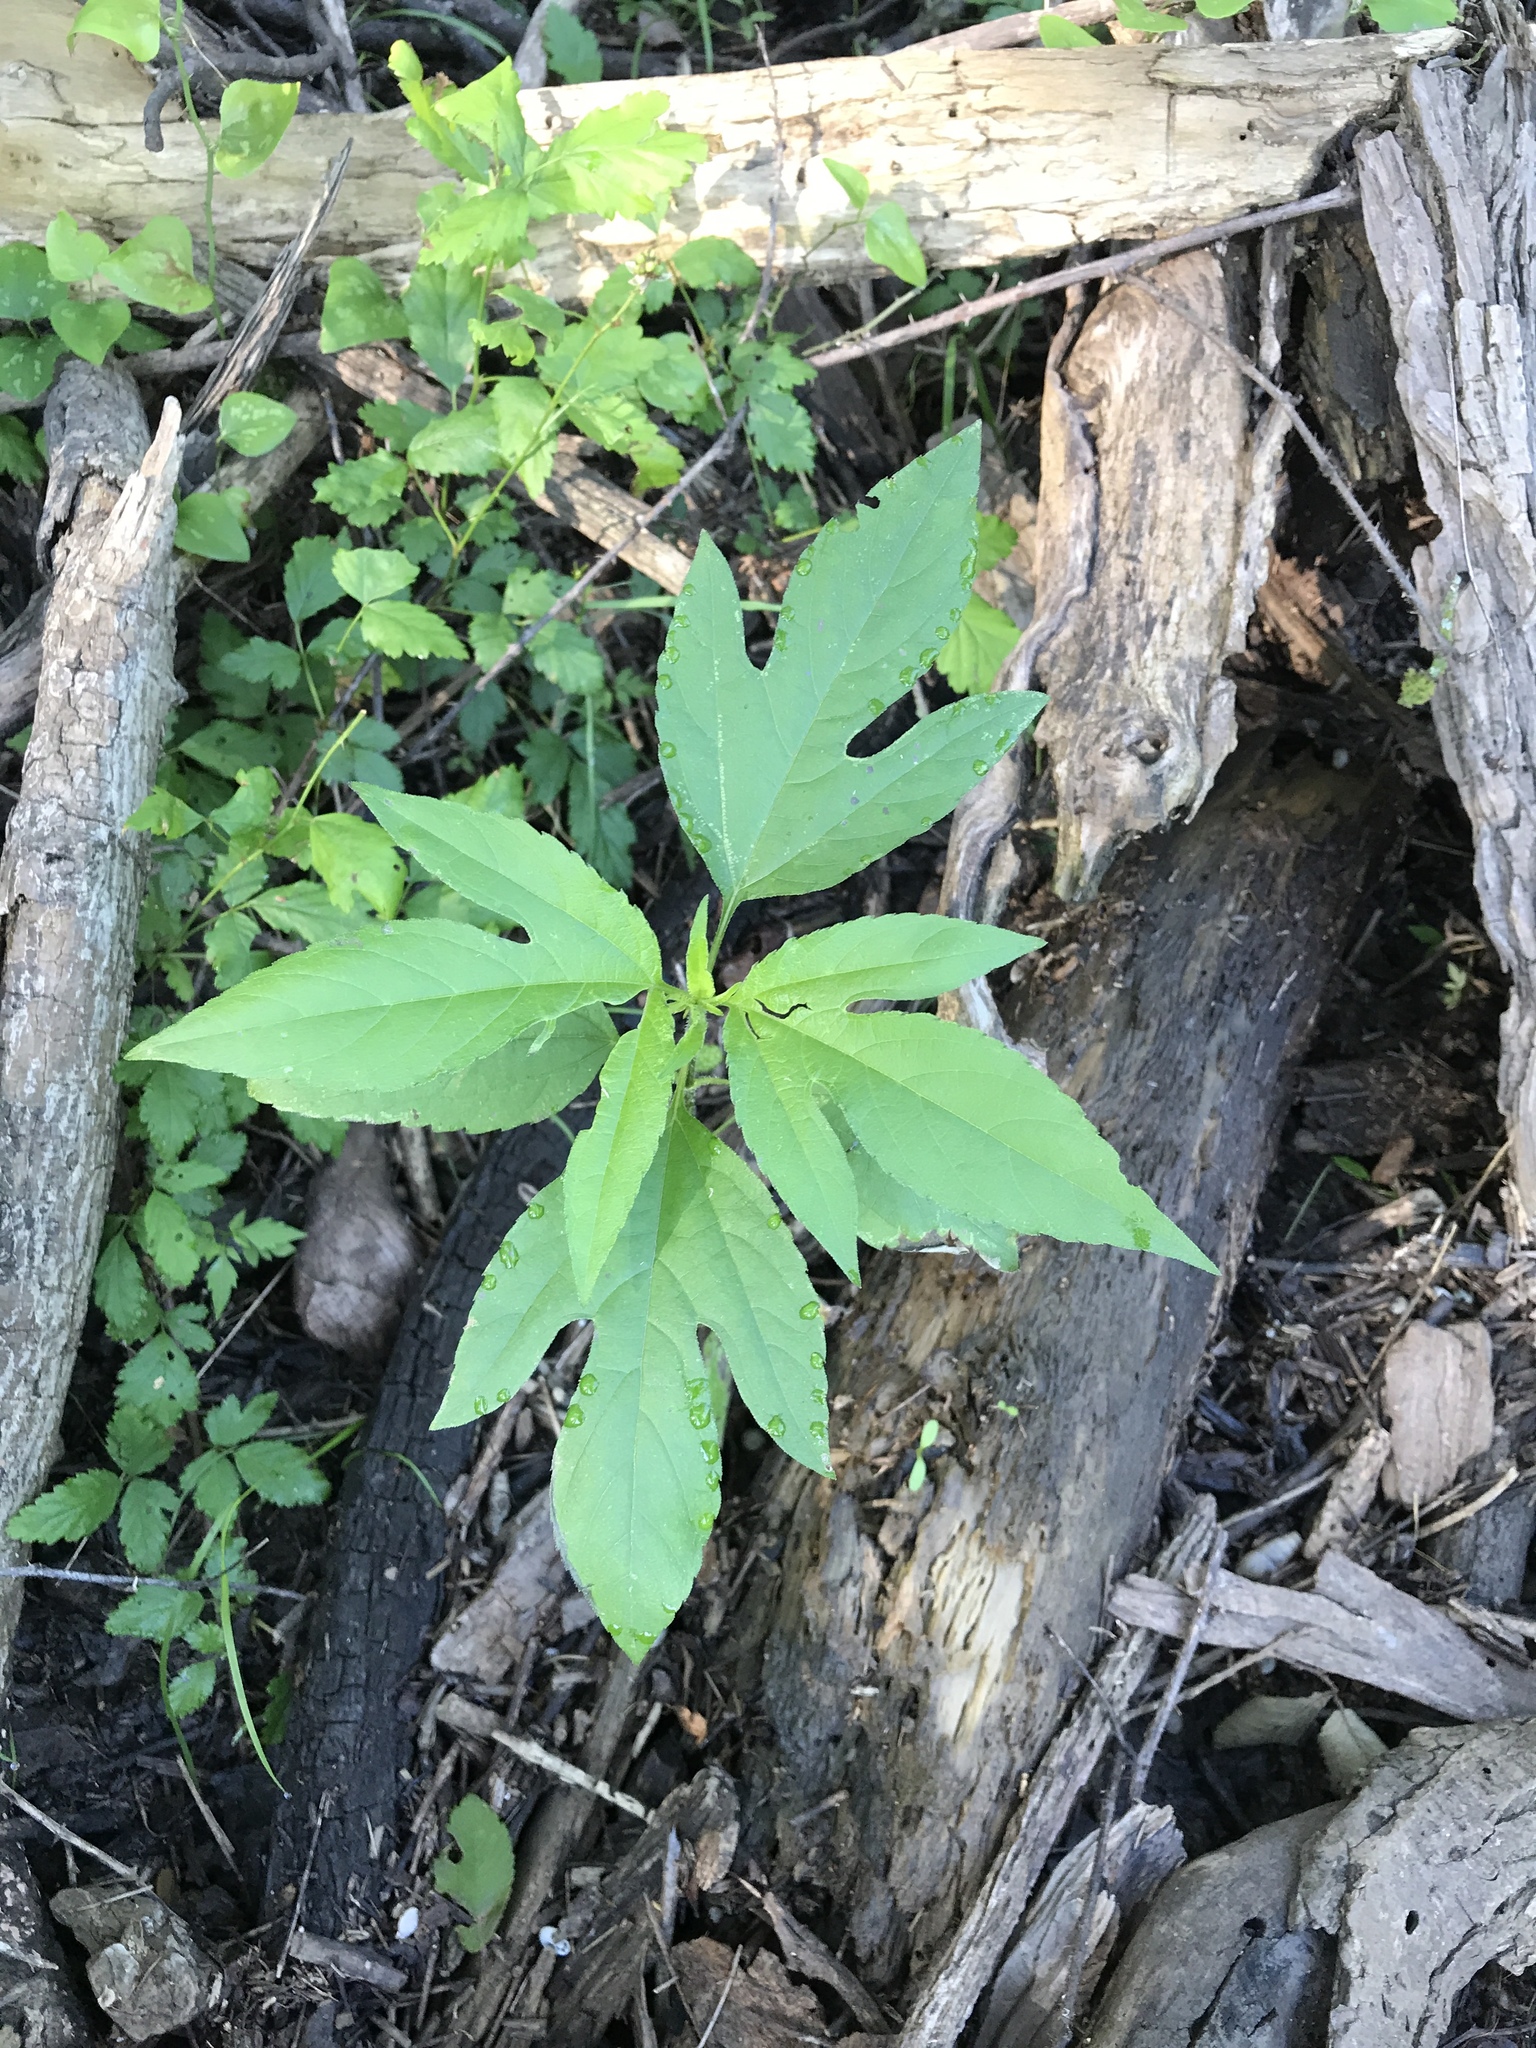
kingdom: Plantae
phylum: Tracheophyta
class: Magnoliopsida
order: Asterales
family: Asteraceae
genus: Ambrosia
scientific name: Ambrosia trifida
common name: Giant ragweed
